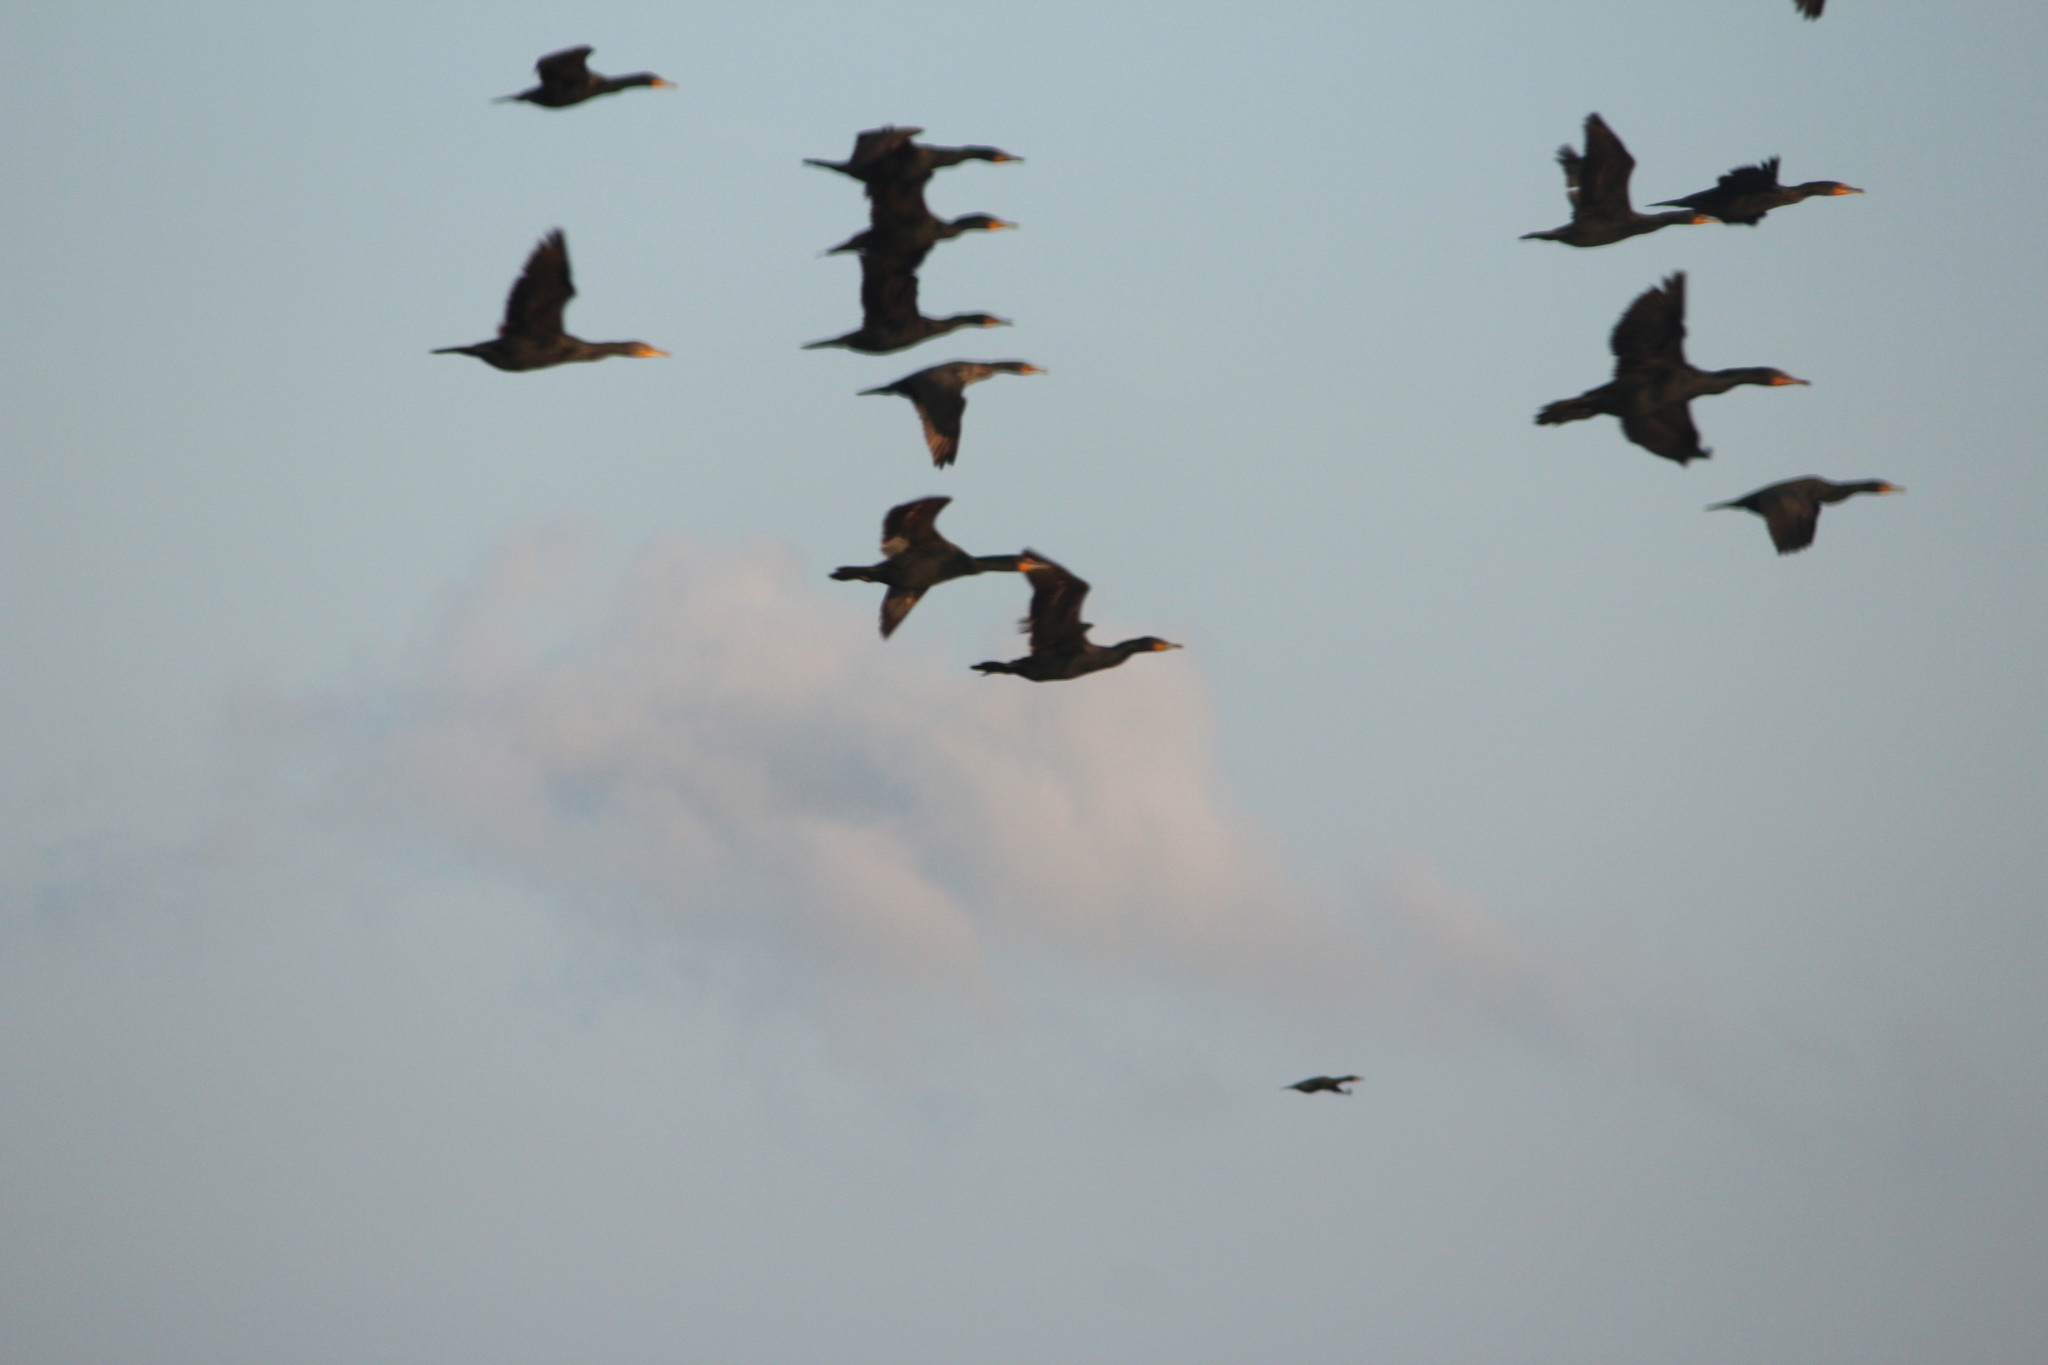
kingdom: Animalia
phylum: Chordata
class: Aves
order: Suliformes
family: Phalacrocoracidae
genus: Phalacrocorax
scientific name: Phalacrocorax auritus
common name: Double-crested cormorant
